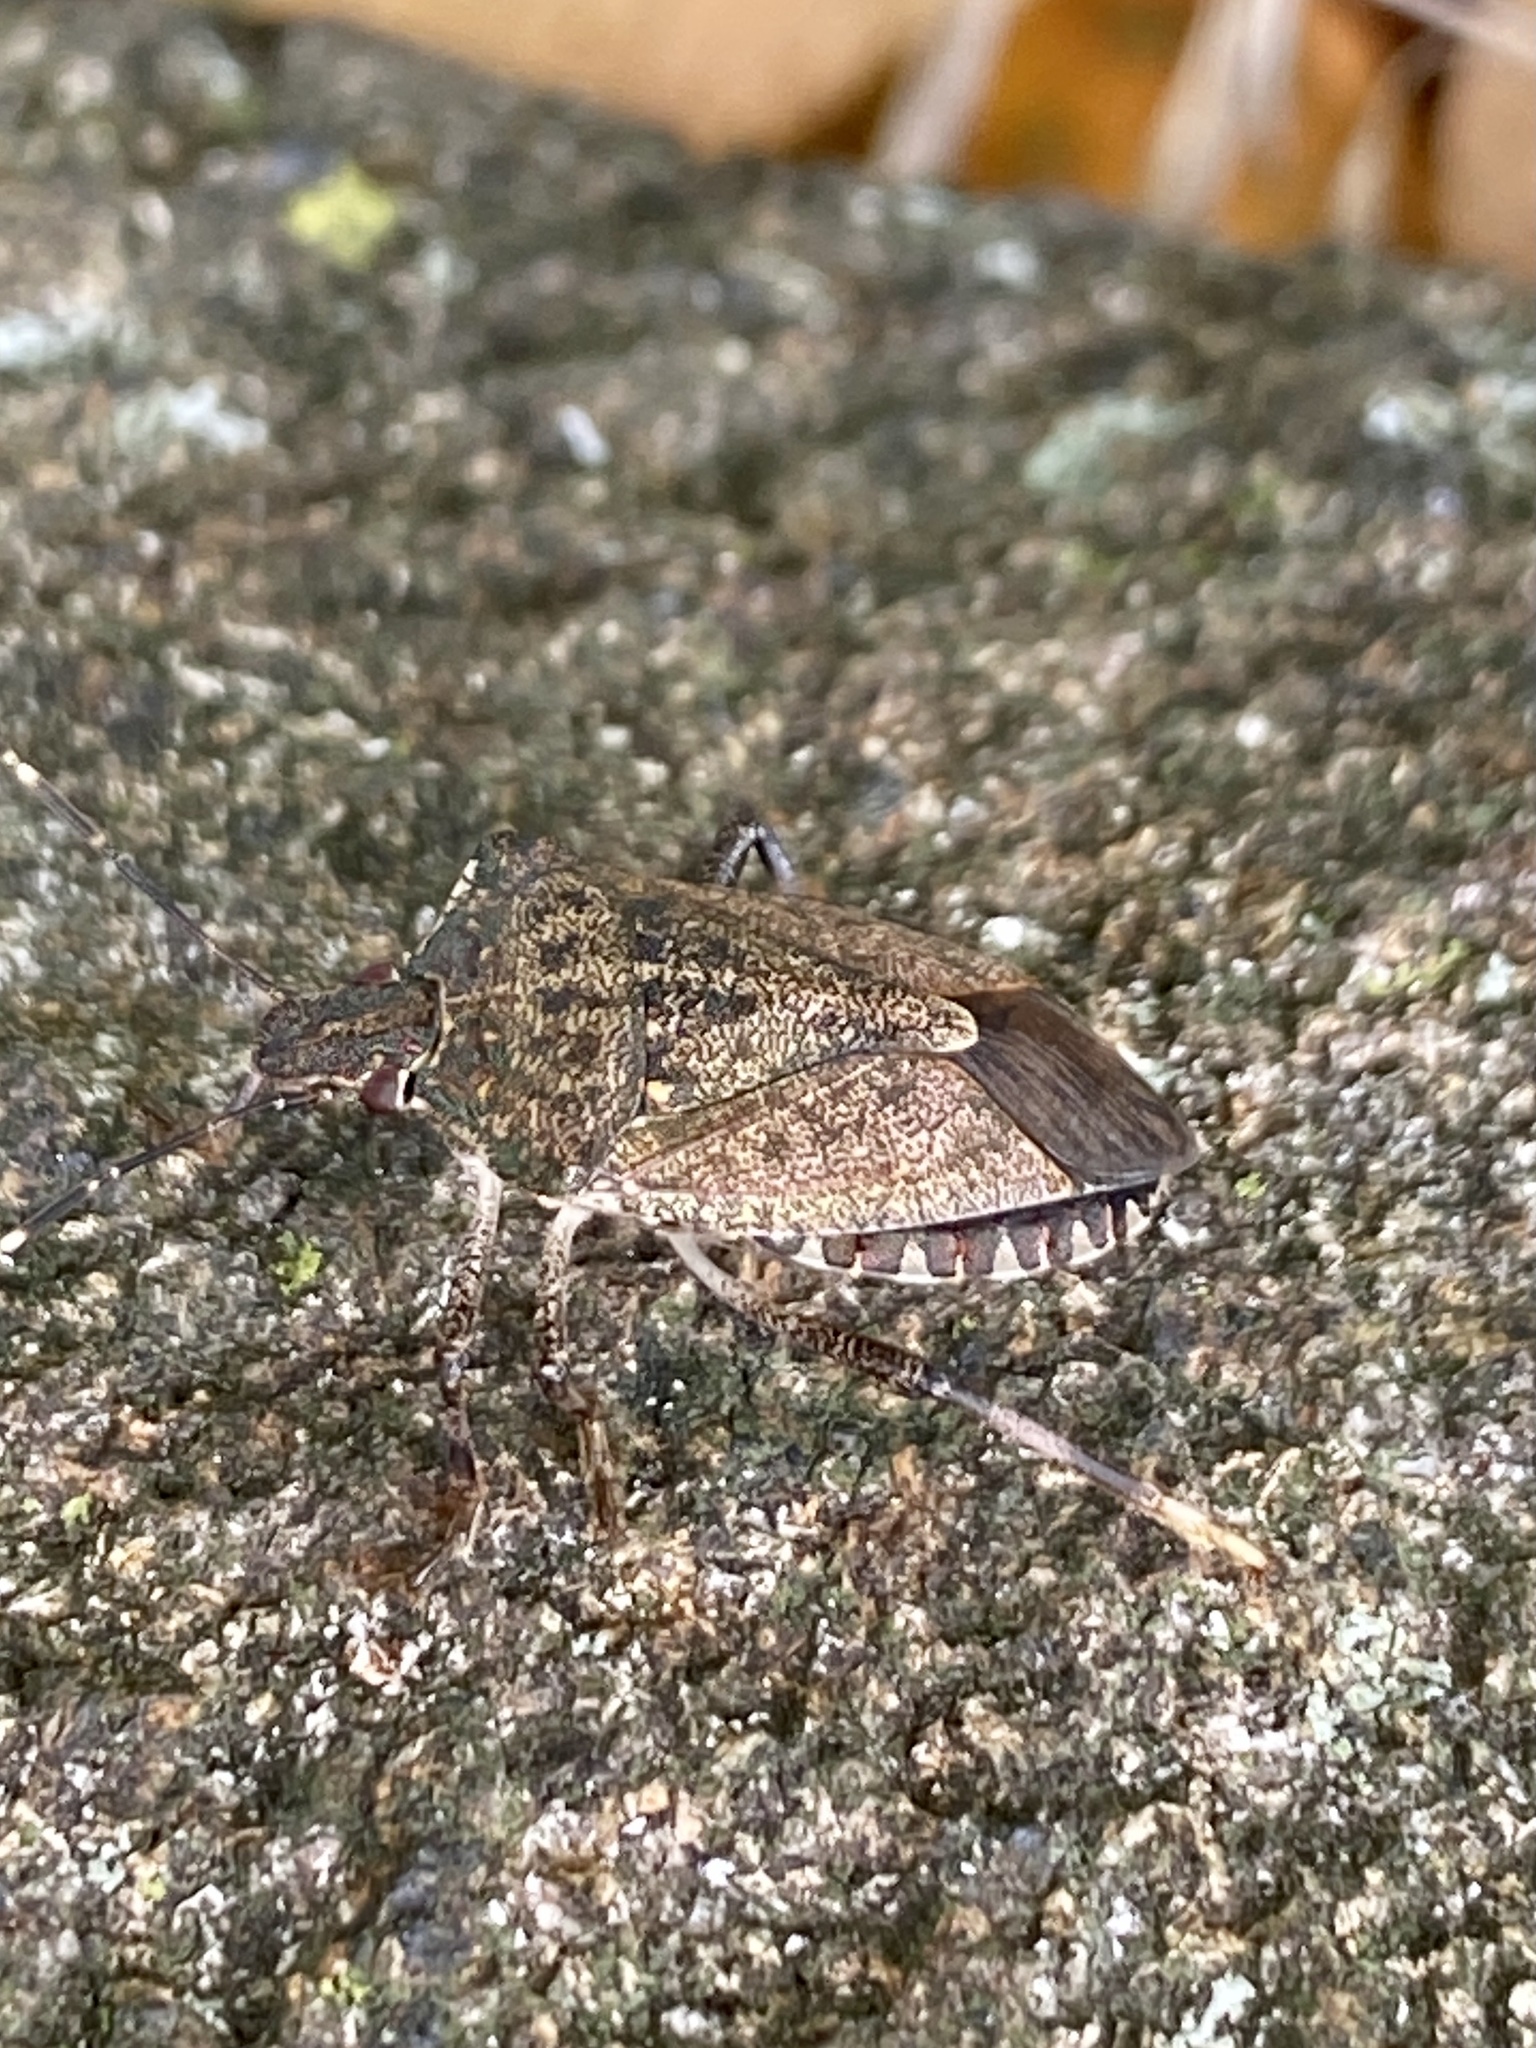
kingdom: Animalia
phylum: Arthropoda
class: Insecta
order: Hemiptera
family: Pentatomidae
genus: Halyomorpha
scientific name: Halyomorpha halys
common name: Brown marmorated stink bug
